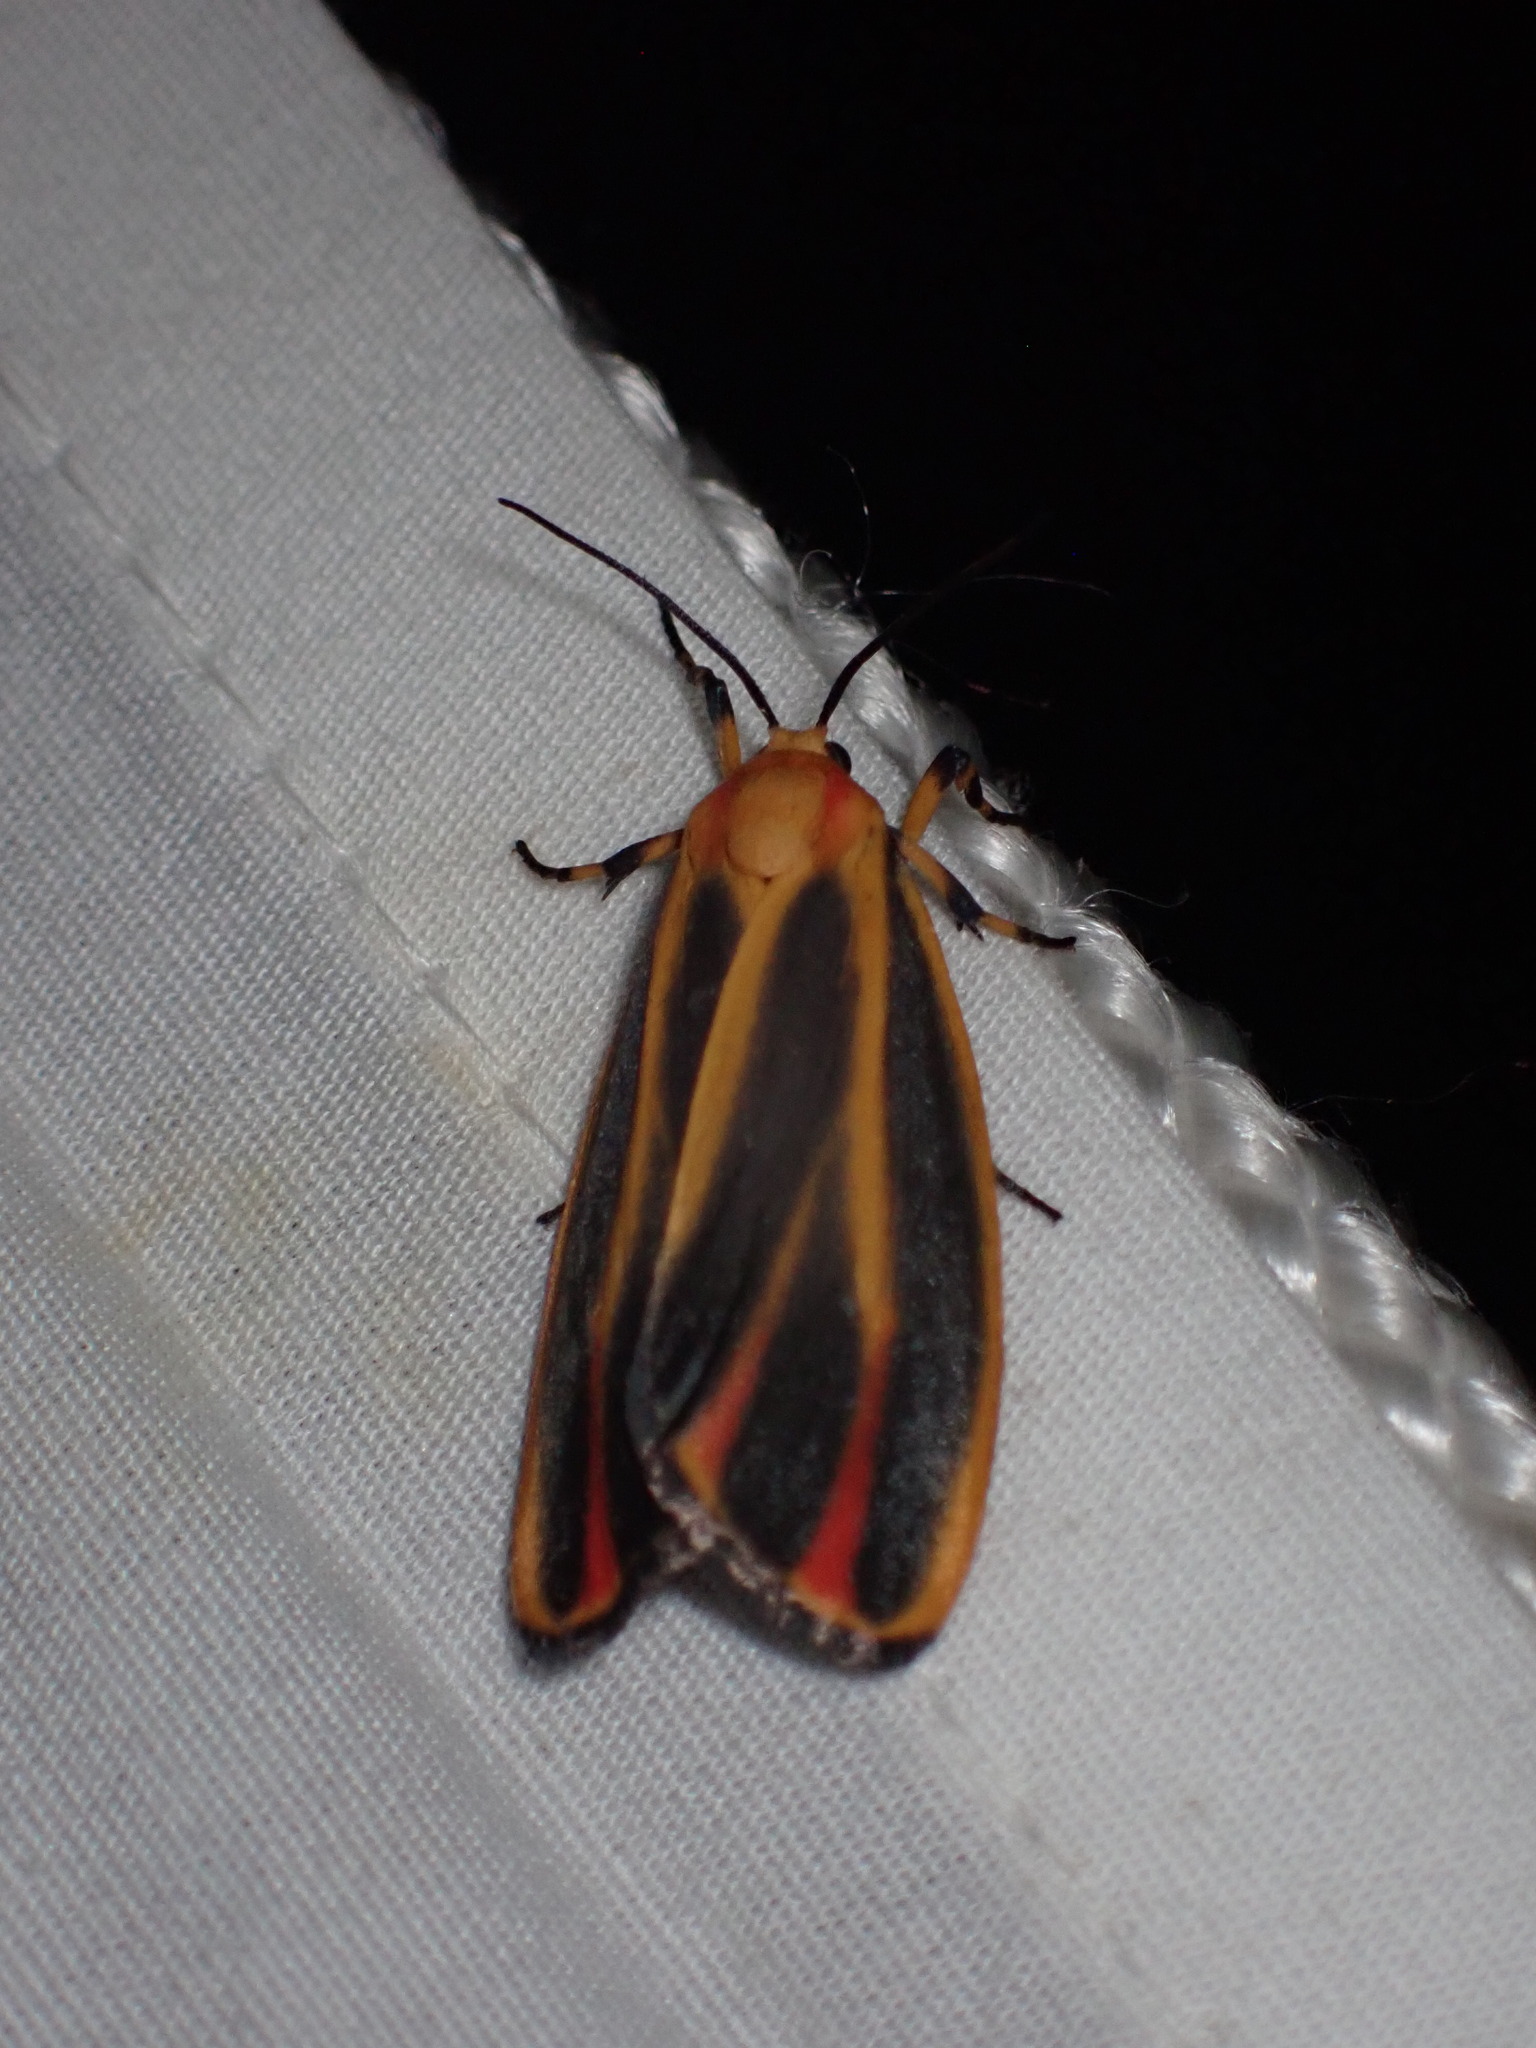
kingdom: Animalia
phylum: Arthropoda
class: Insecta
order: Lepidoptera
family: Erebidae
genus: Hypoprepia
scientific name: Hypoprepia fucosa
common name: Painted lichen moth
